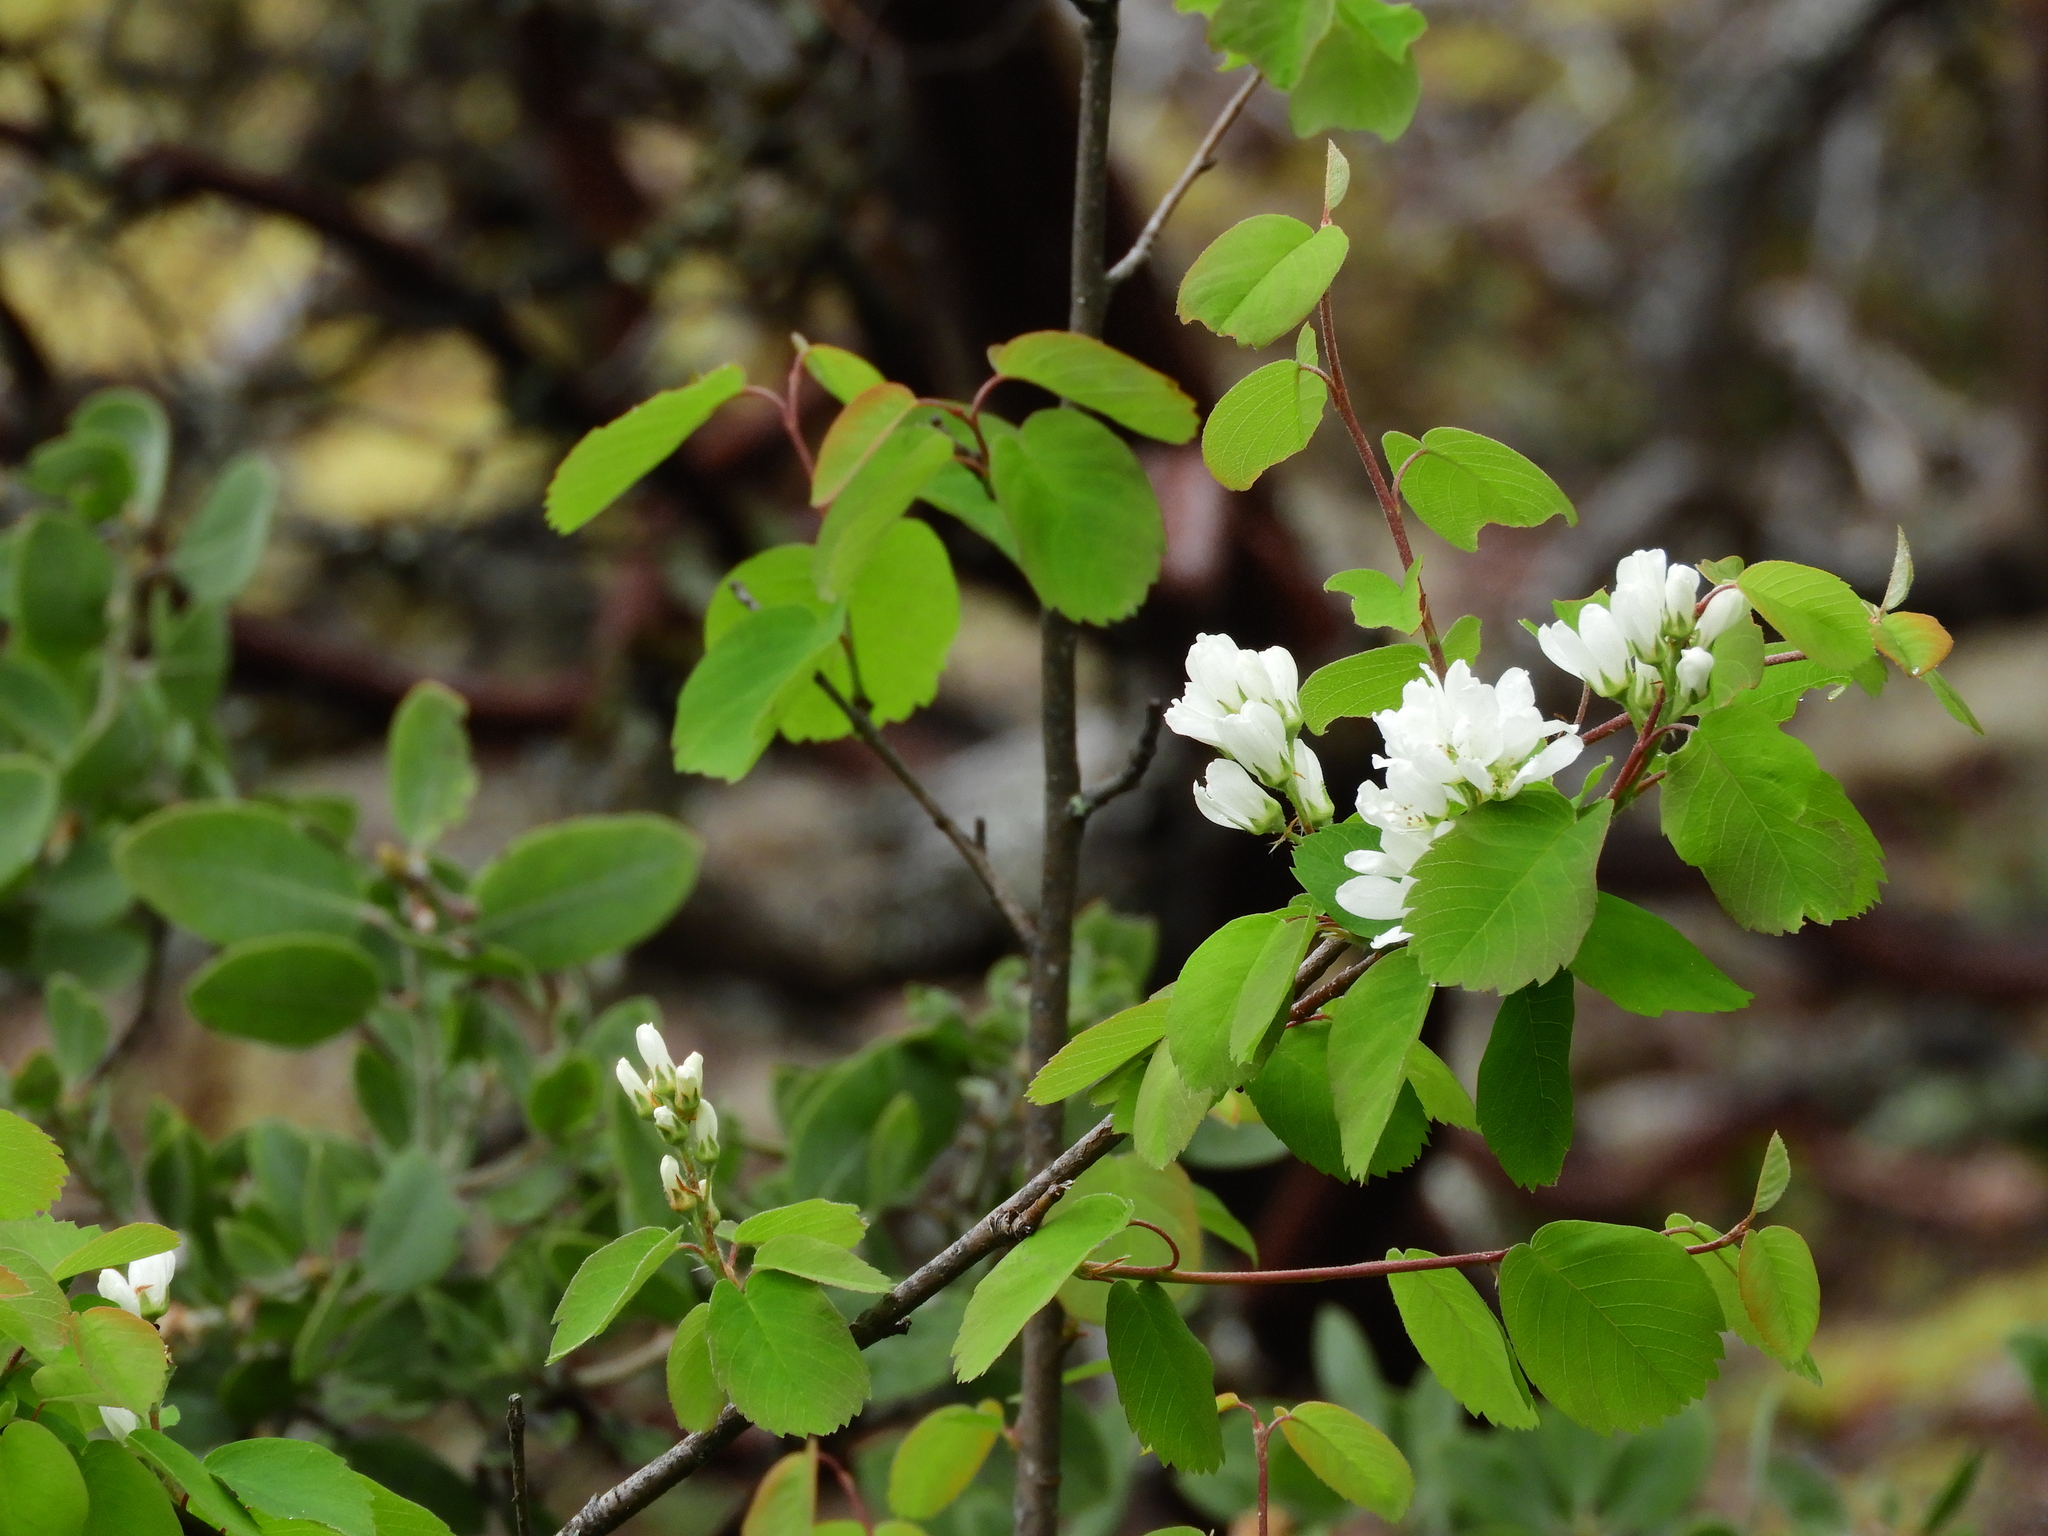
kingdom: Plantae
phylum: Tracheophyta
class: Magnoliopsida
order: Rosales
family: Rosaceae
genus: Amelanchier
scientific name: Amelanchier alnifolia
